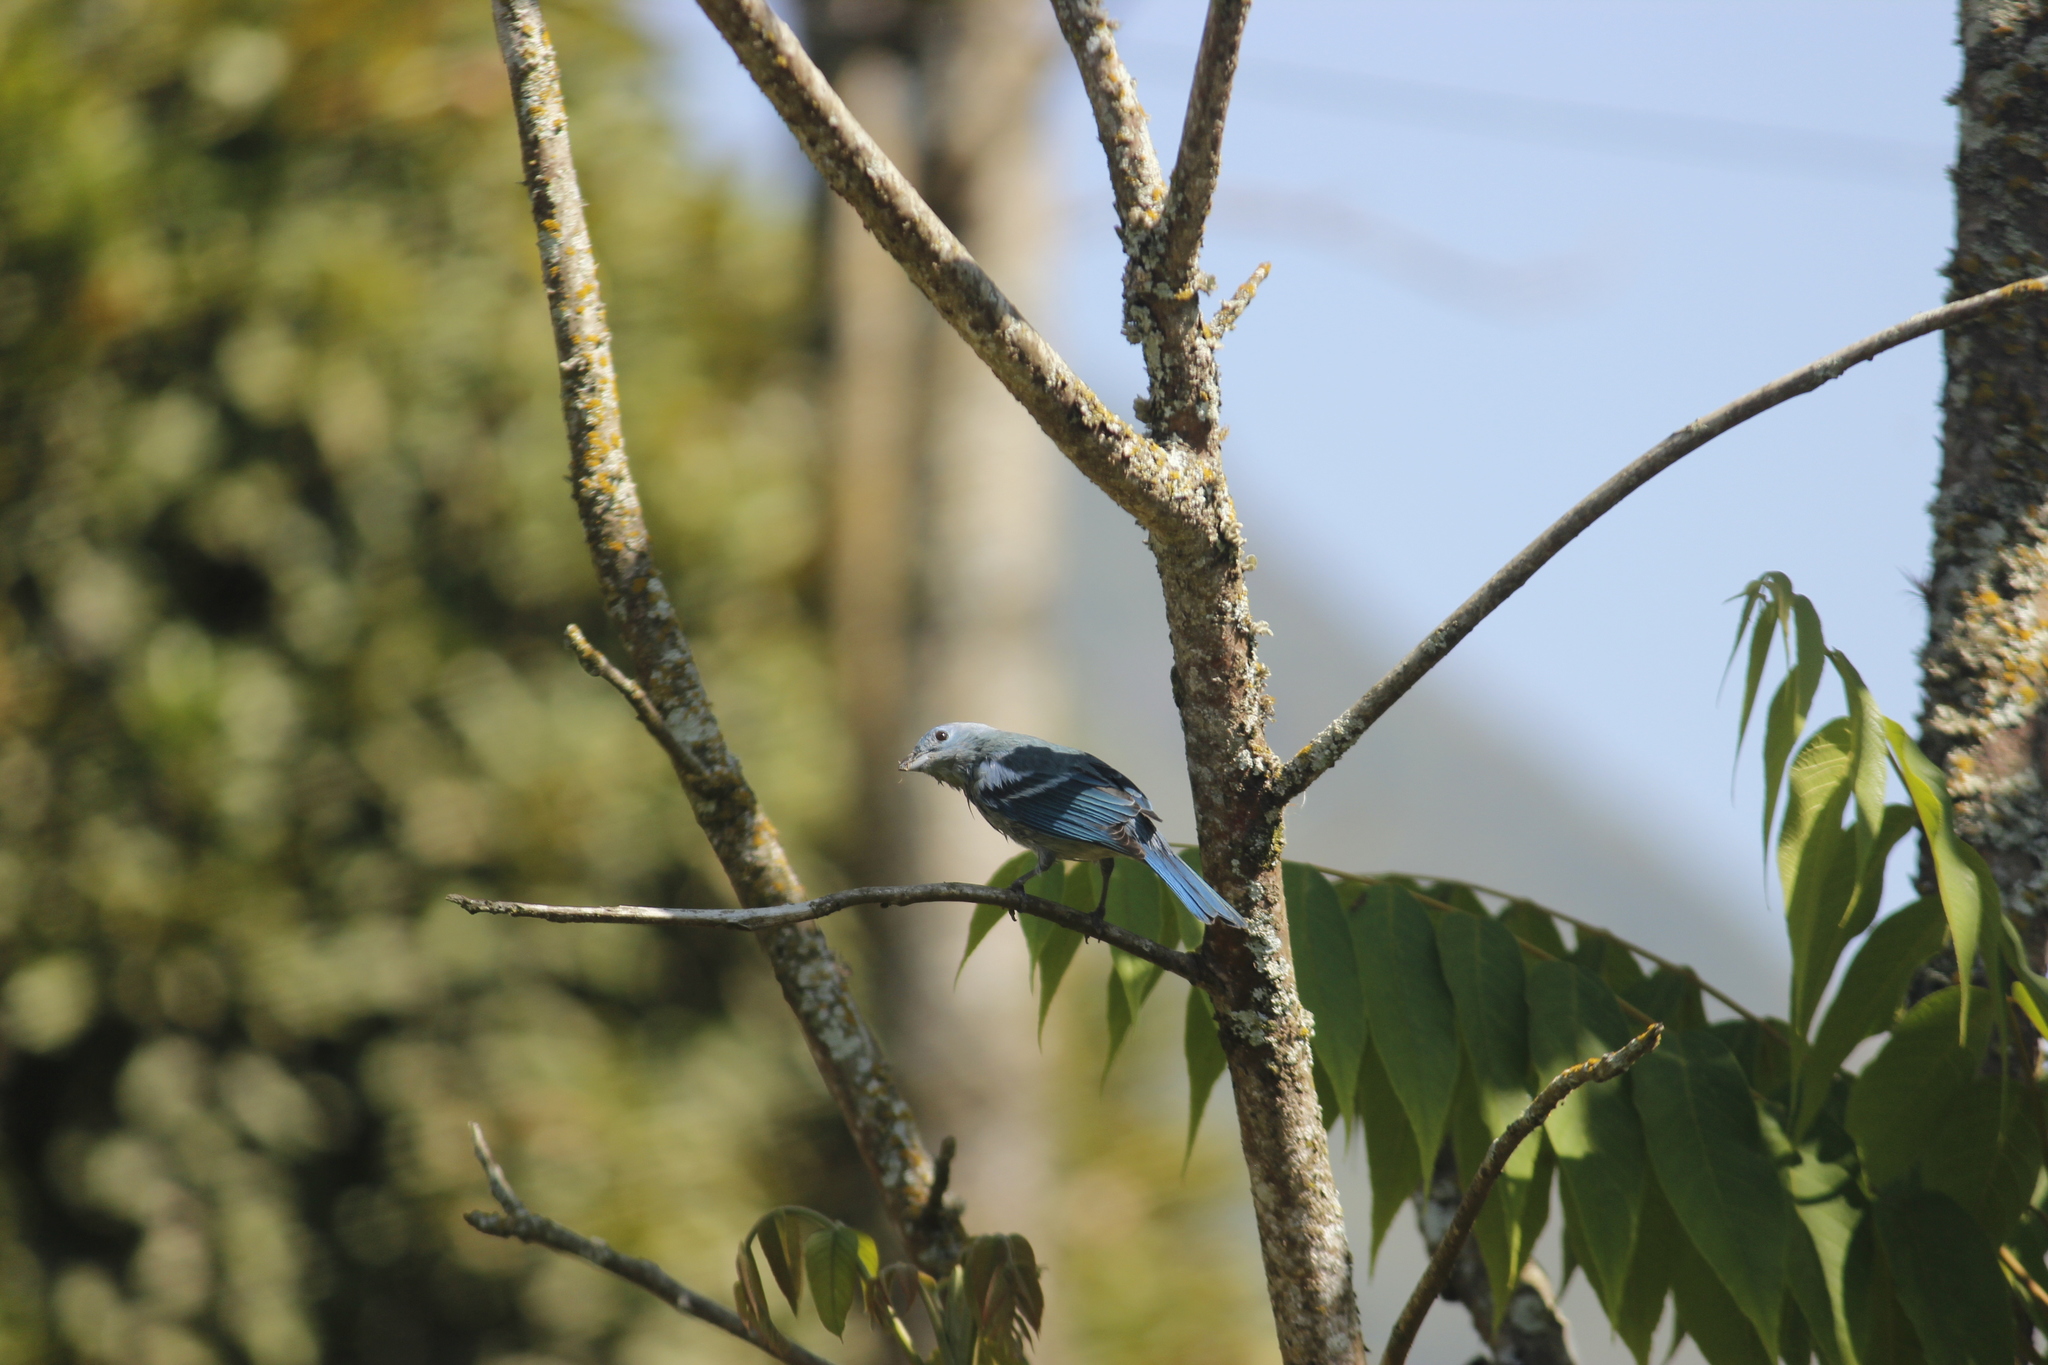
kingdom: Animalia
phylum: Chordata
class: Aves
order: Passeriformes
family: Thraupidae
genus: Thraupis
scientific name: Thraupis episcopus
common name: Blue-grey tanager
